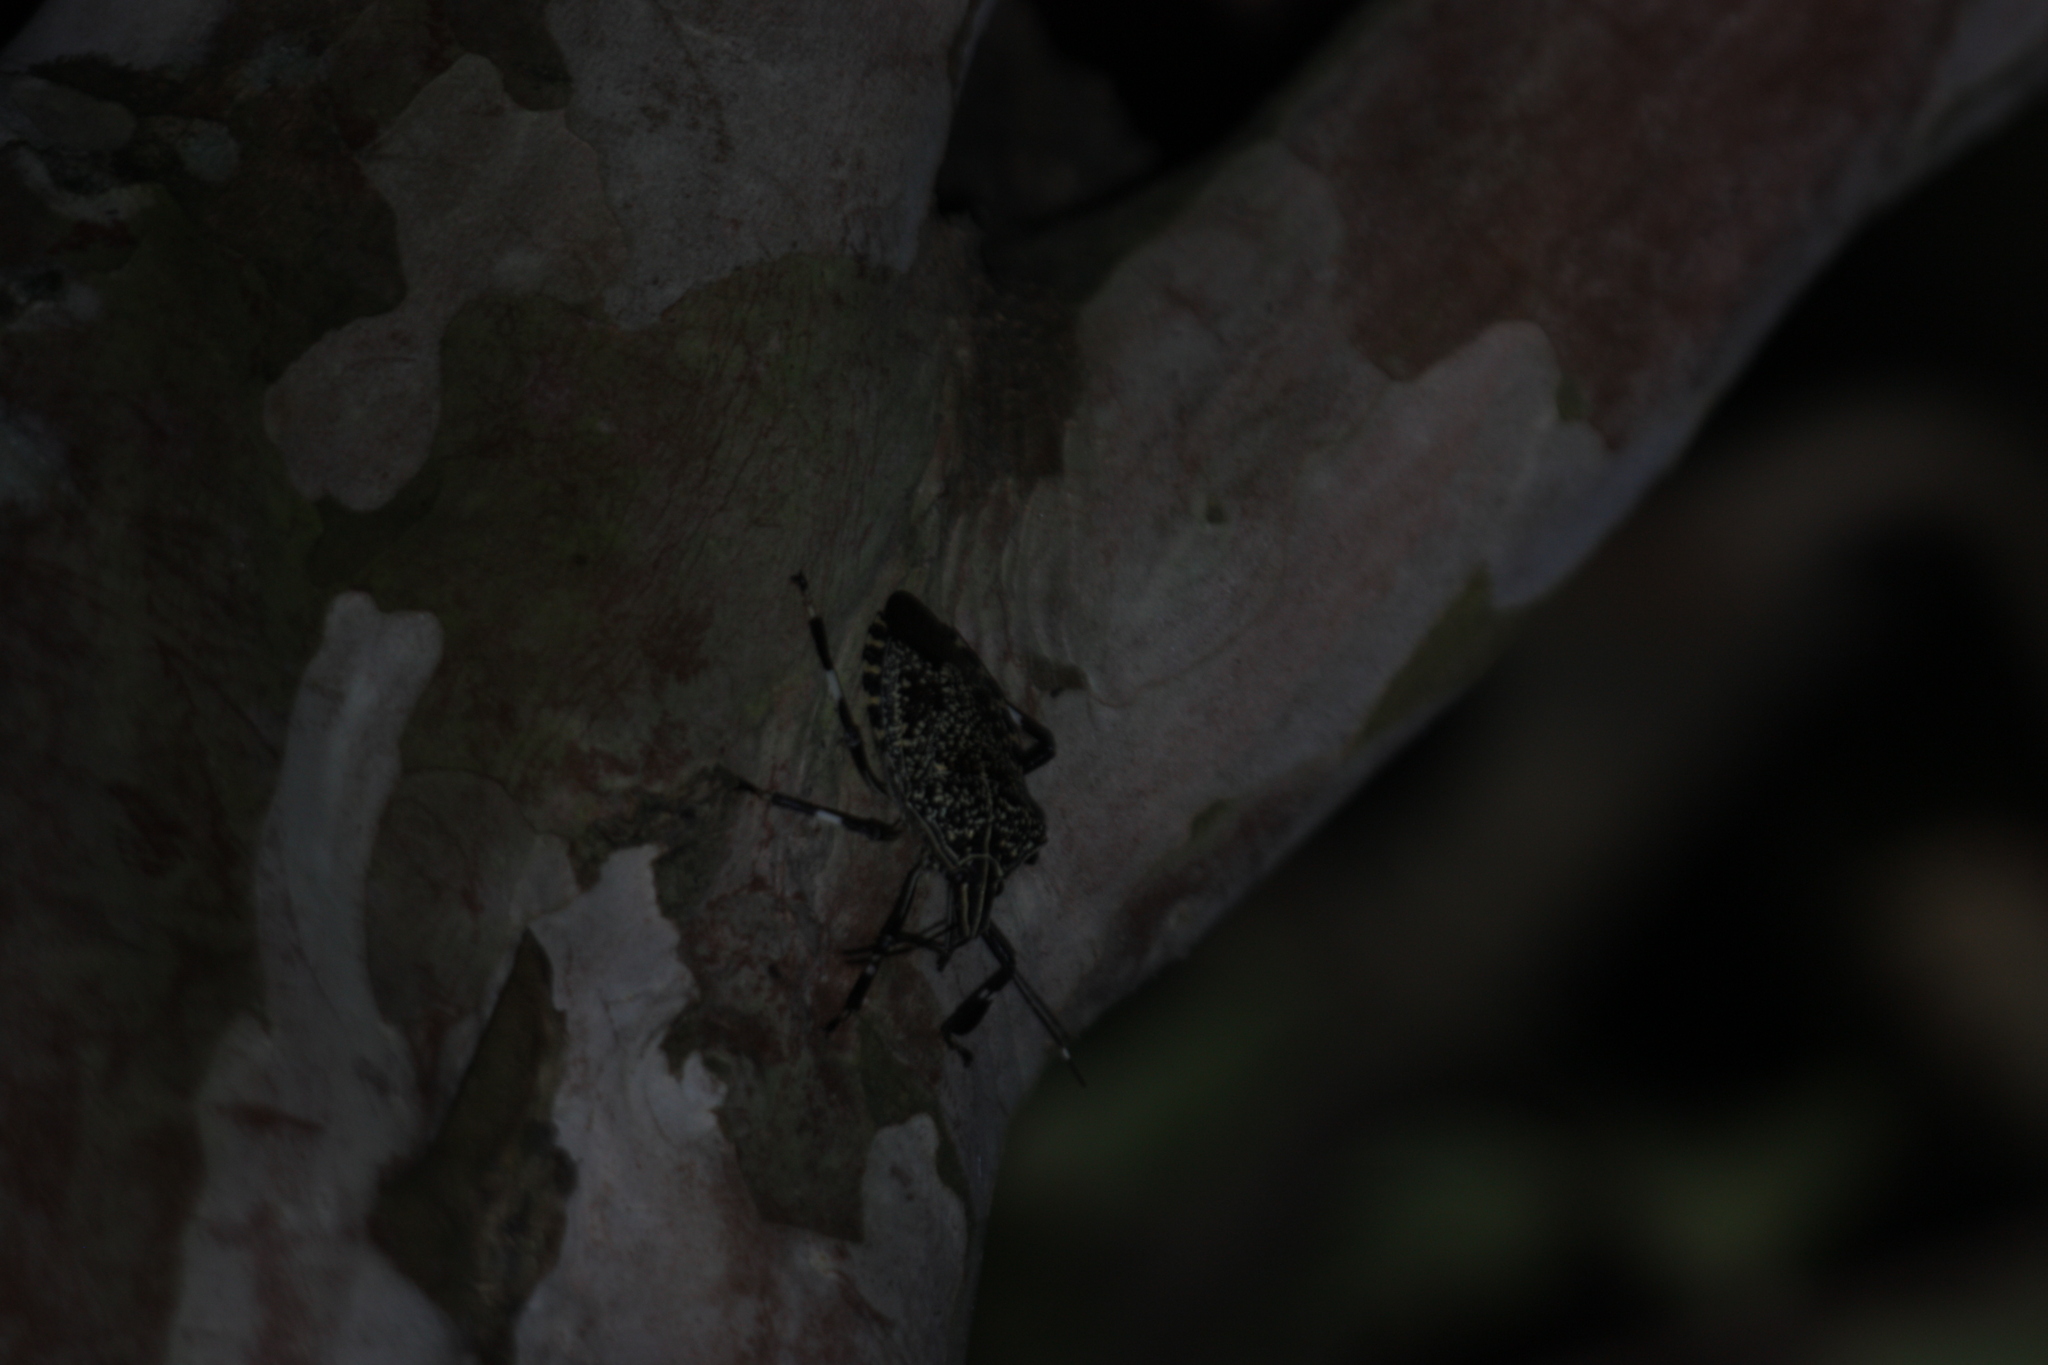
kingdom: Animalia
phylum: Arthropoda
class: Insecta
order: Hemiptera
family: Pentatomidae
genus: Erthesina
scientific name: Erthesina fullo
